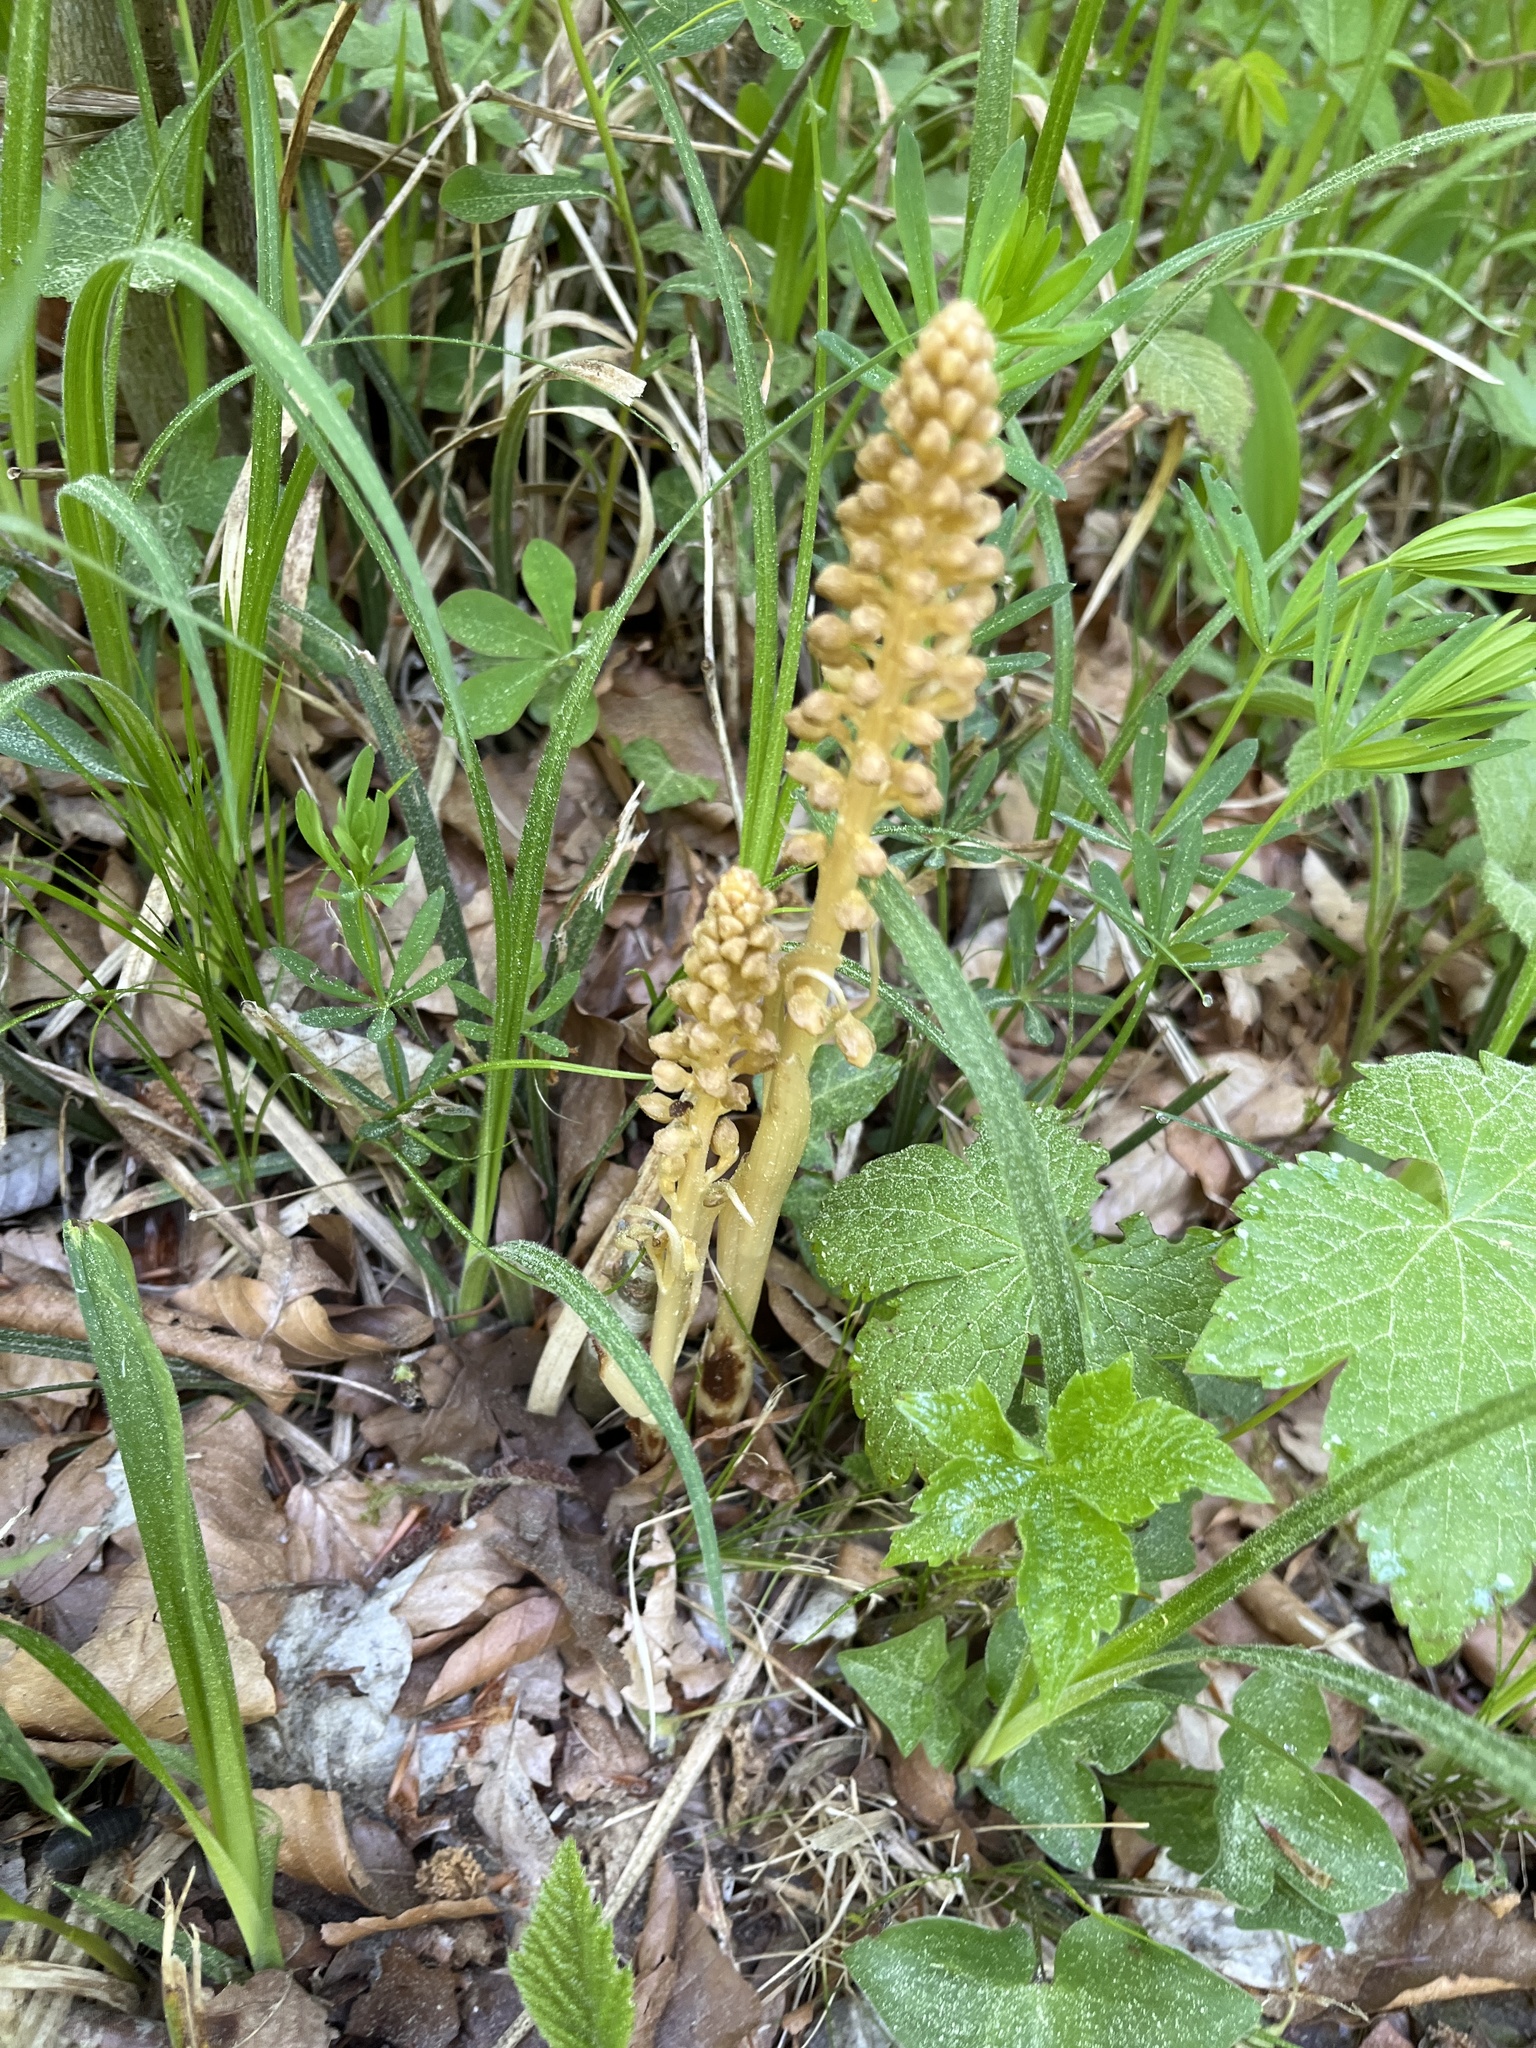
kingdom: Plantae
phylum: Tracheophyta
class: Liliopsida
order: Asparagales
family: Orchidaceae
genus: Neottia
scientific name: Neottia nidus-avis
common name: Bird's-nest orchid
